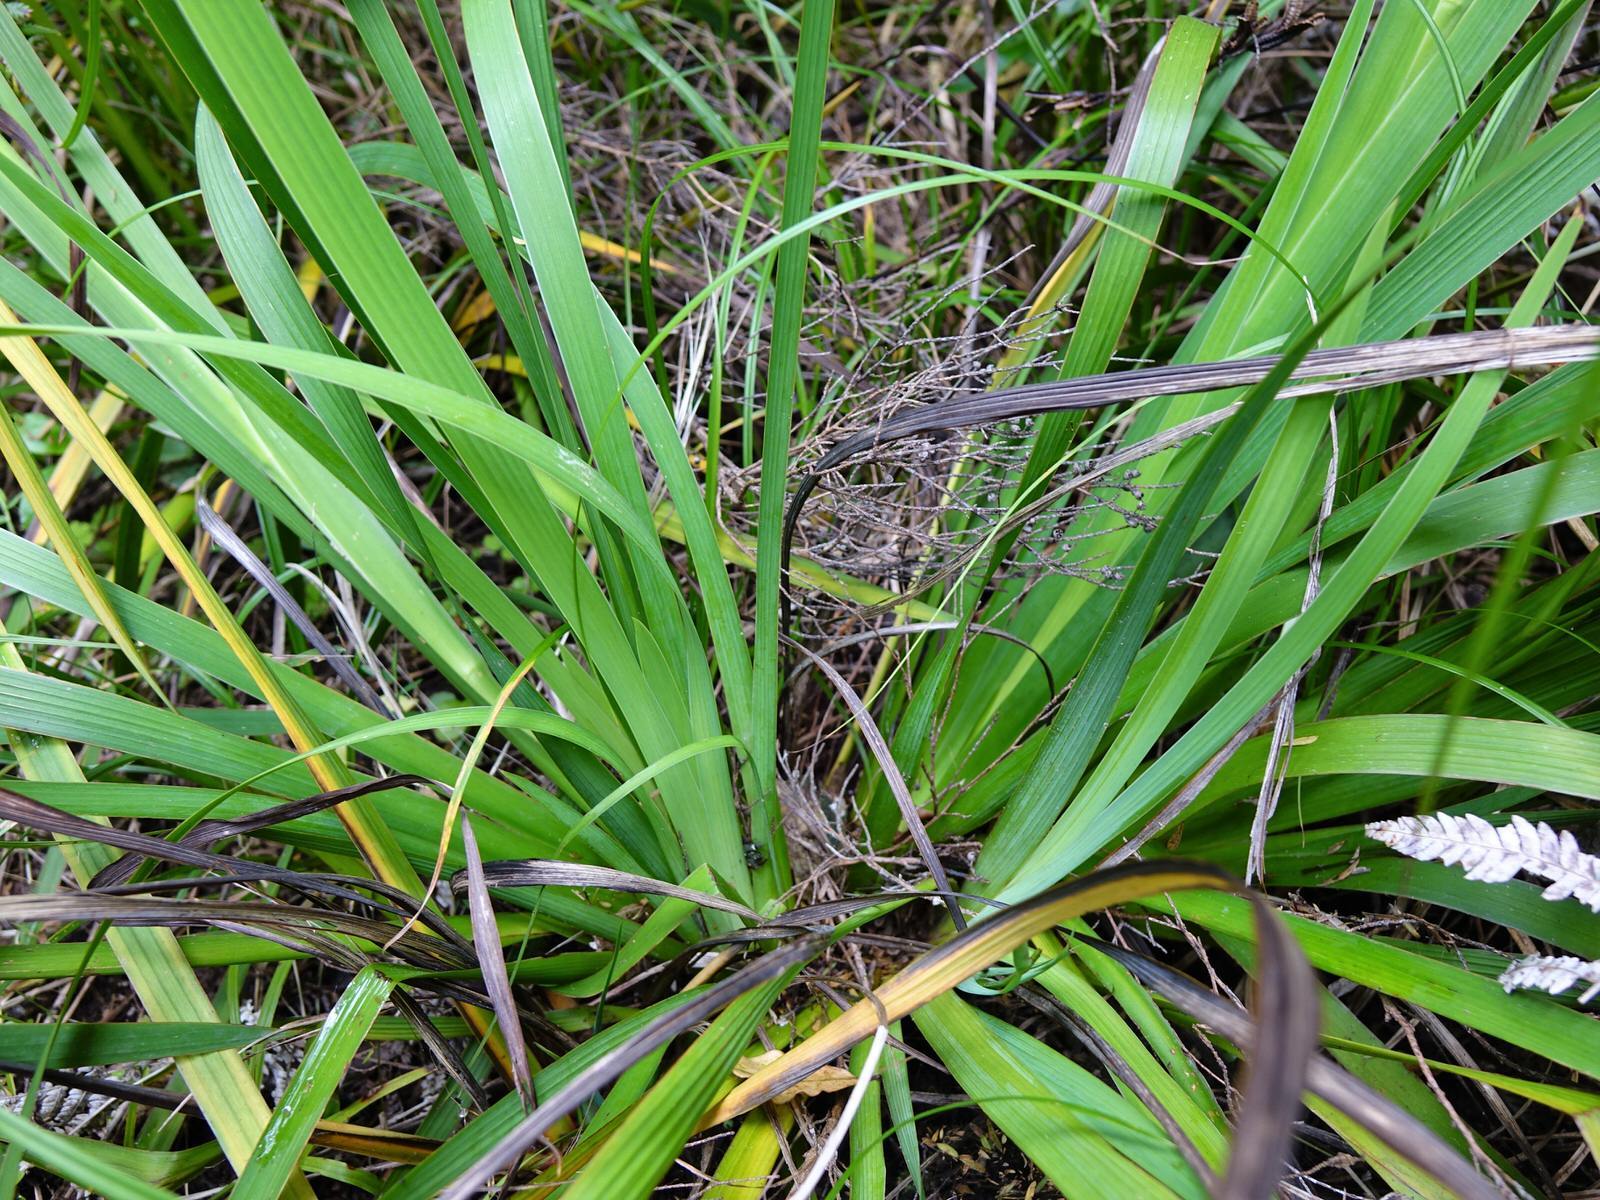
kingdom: Plantae
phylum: Tracheophyta
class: Liliopsida
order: Asparagales
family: Iridaceae
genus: Aristea
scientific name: Aristea ecklonii
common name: Blue corn-lily
